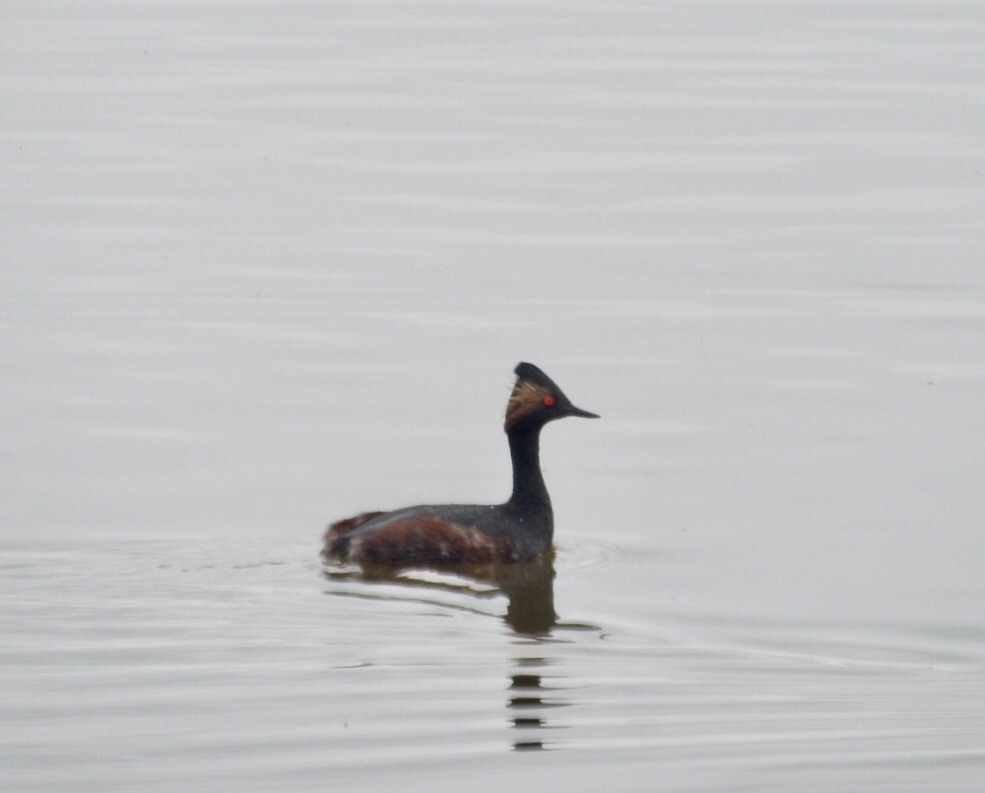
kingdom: Animalia
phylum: Chordata
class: Aves
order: Podicipediformes
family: Podicipedidae
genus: Podiceps
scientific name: Podiceps nigricollis
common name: Black-necked grebe
